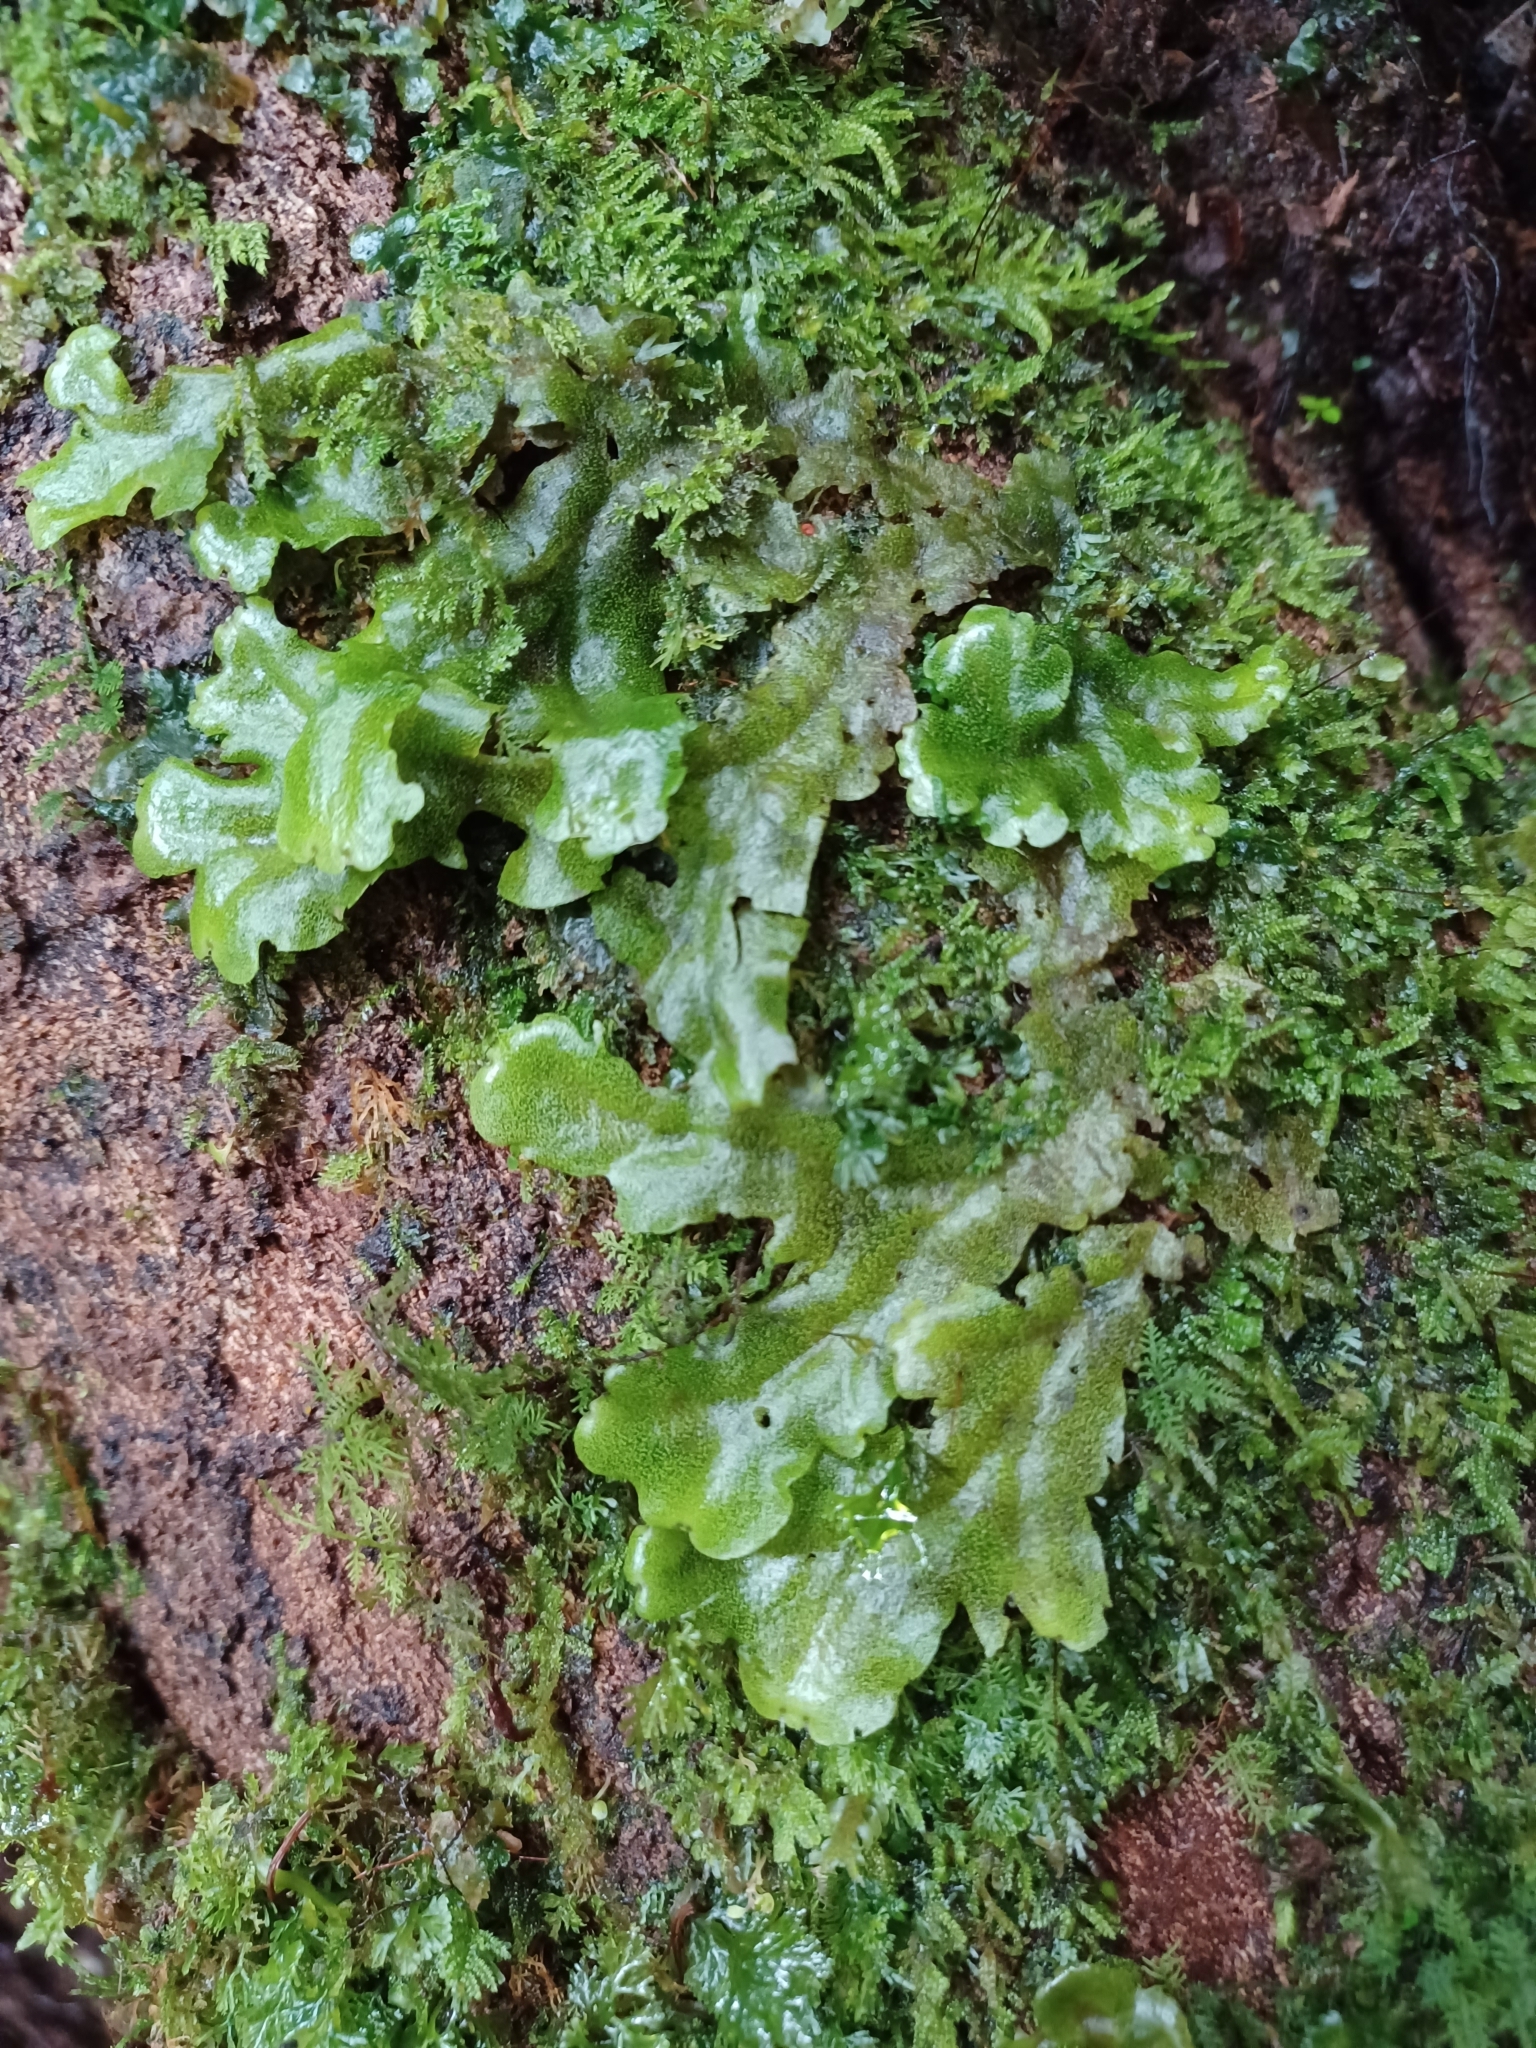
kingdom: Plantae
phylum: Marchantiophyta
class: Marchantiopsida
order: Marchantiales
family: Monocleaceae
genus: Monoclea
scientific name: Monoclea gottschei
